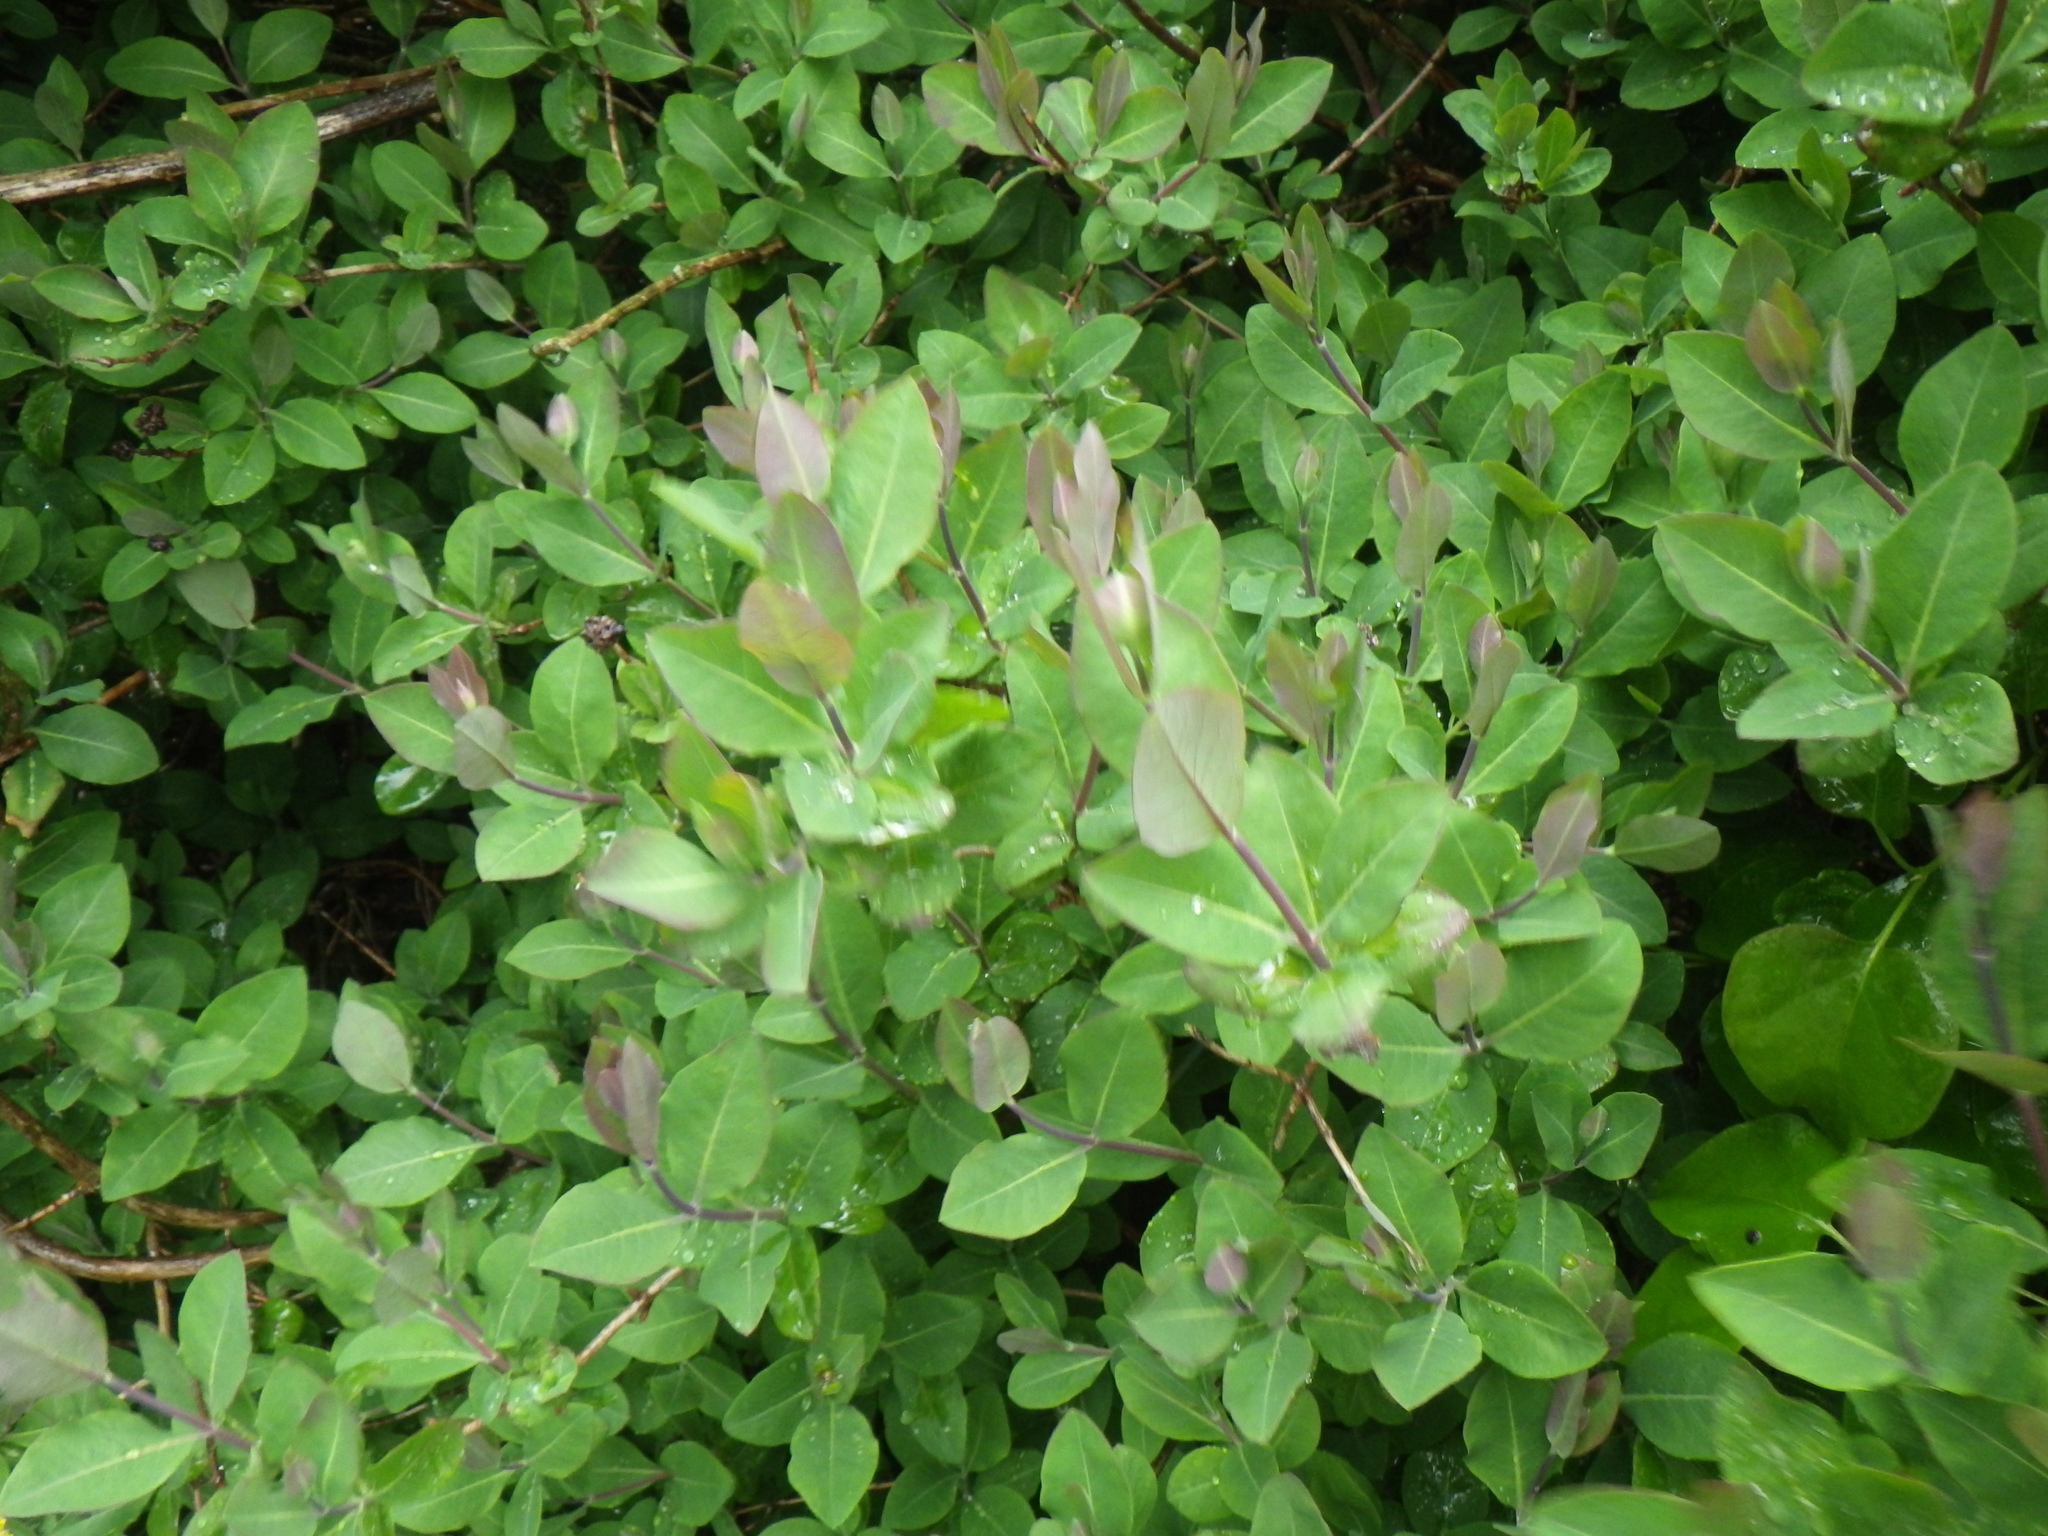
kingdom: Plantae
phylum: Tracheophyta
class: Magnoliopsida
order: Dipsacales
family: Caprifoliaceae
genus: Lonicera
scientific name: Lonicera periclymenum
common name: European honeysuckle
